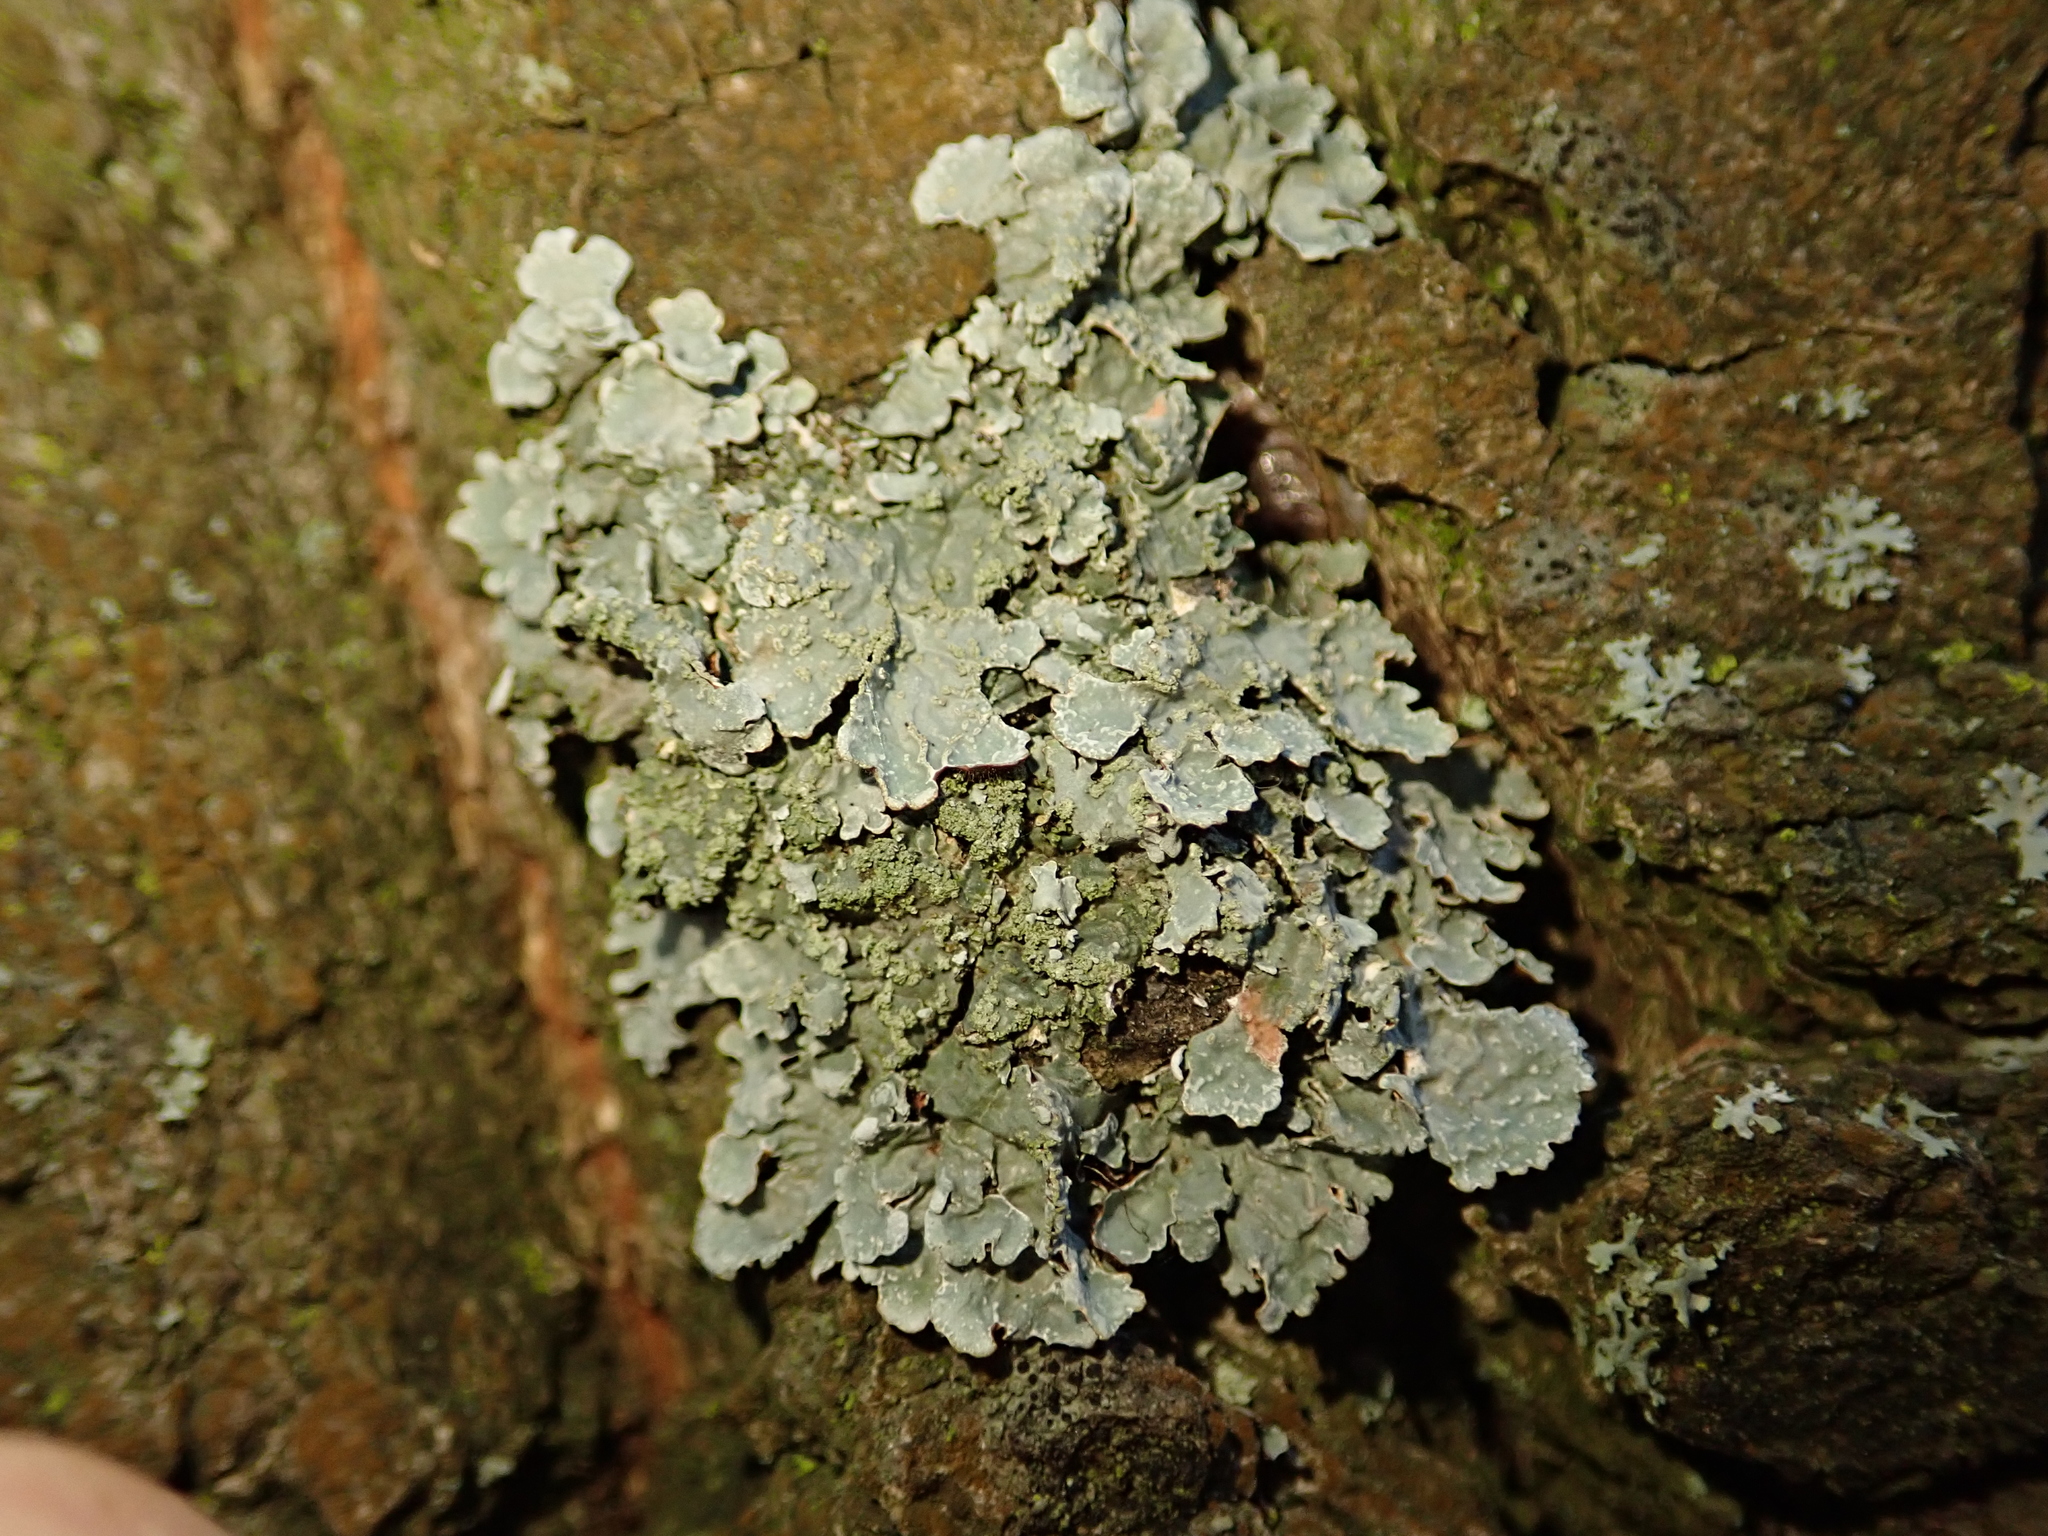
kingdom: Fungi
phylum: Ascomycota
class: Lecanoromycetes
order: Lecanorales
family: Parmeliaceae
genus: Parmelia
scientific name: Parmelia sulcata
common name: Netted shield lichen
